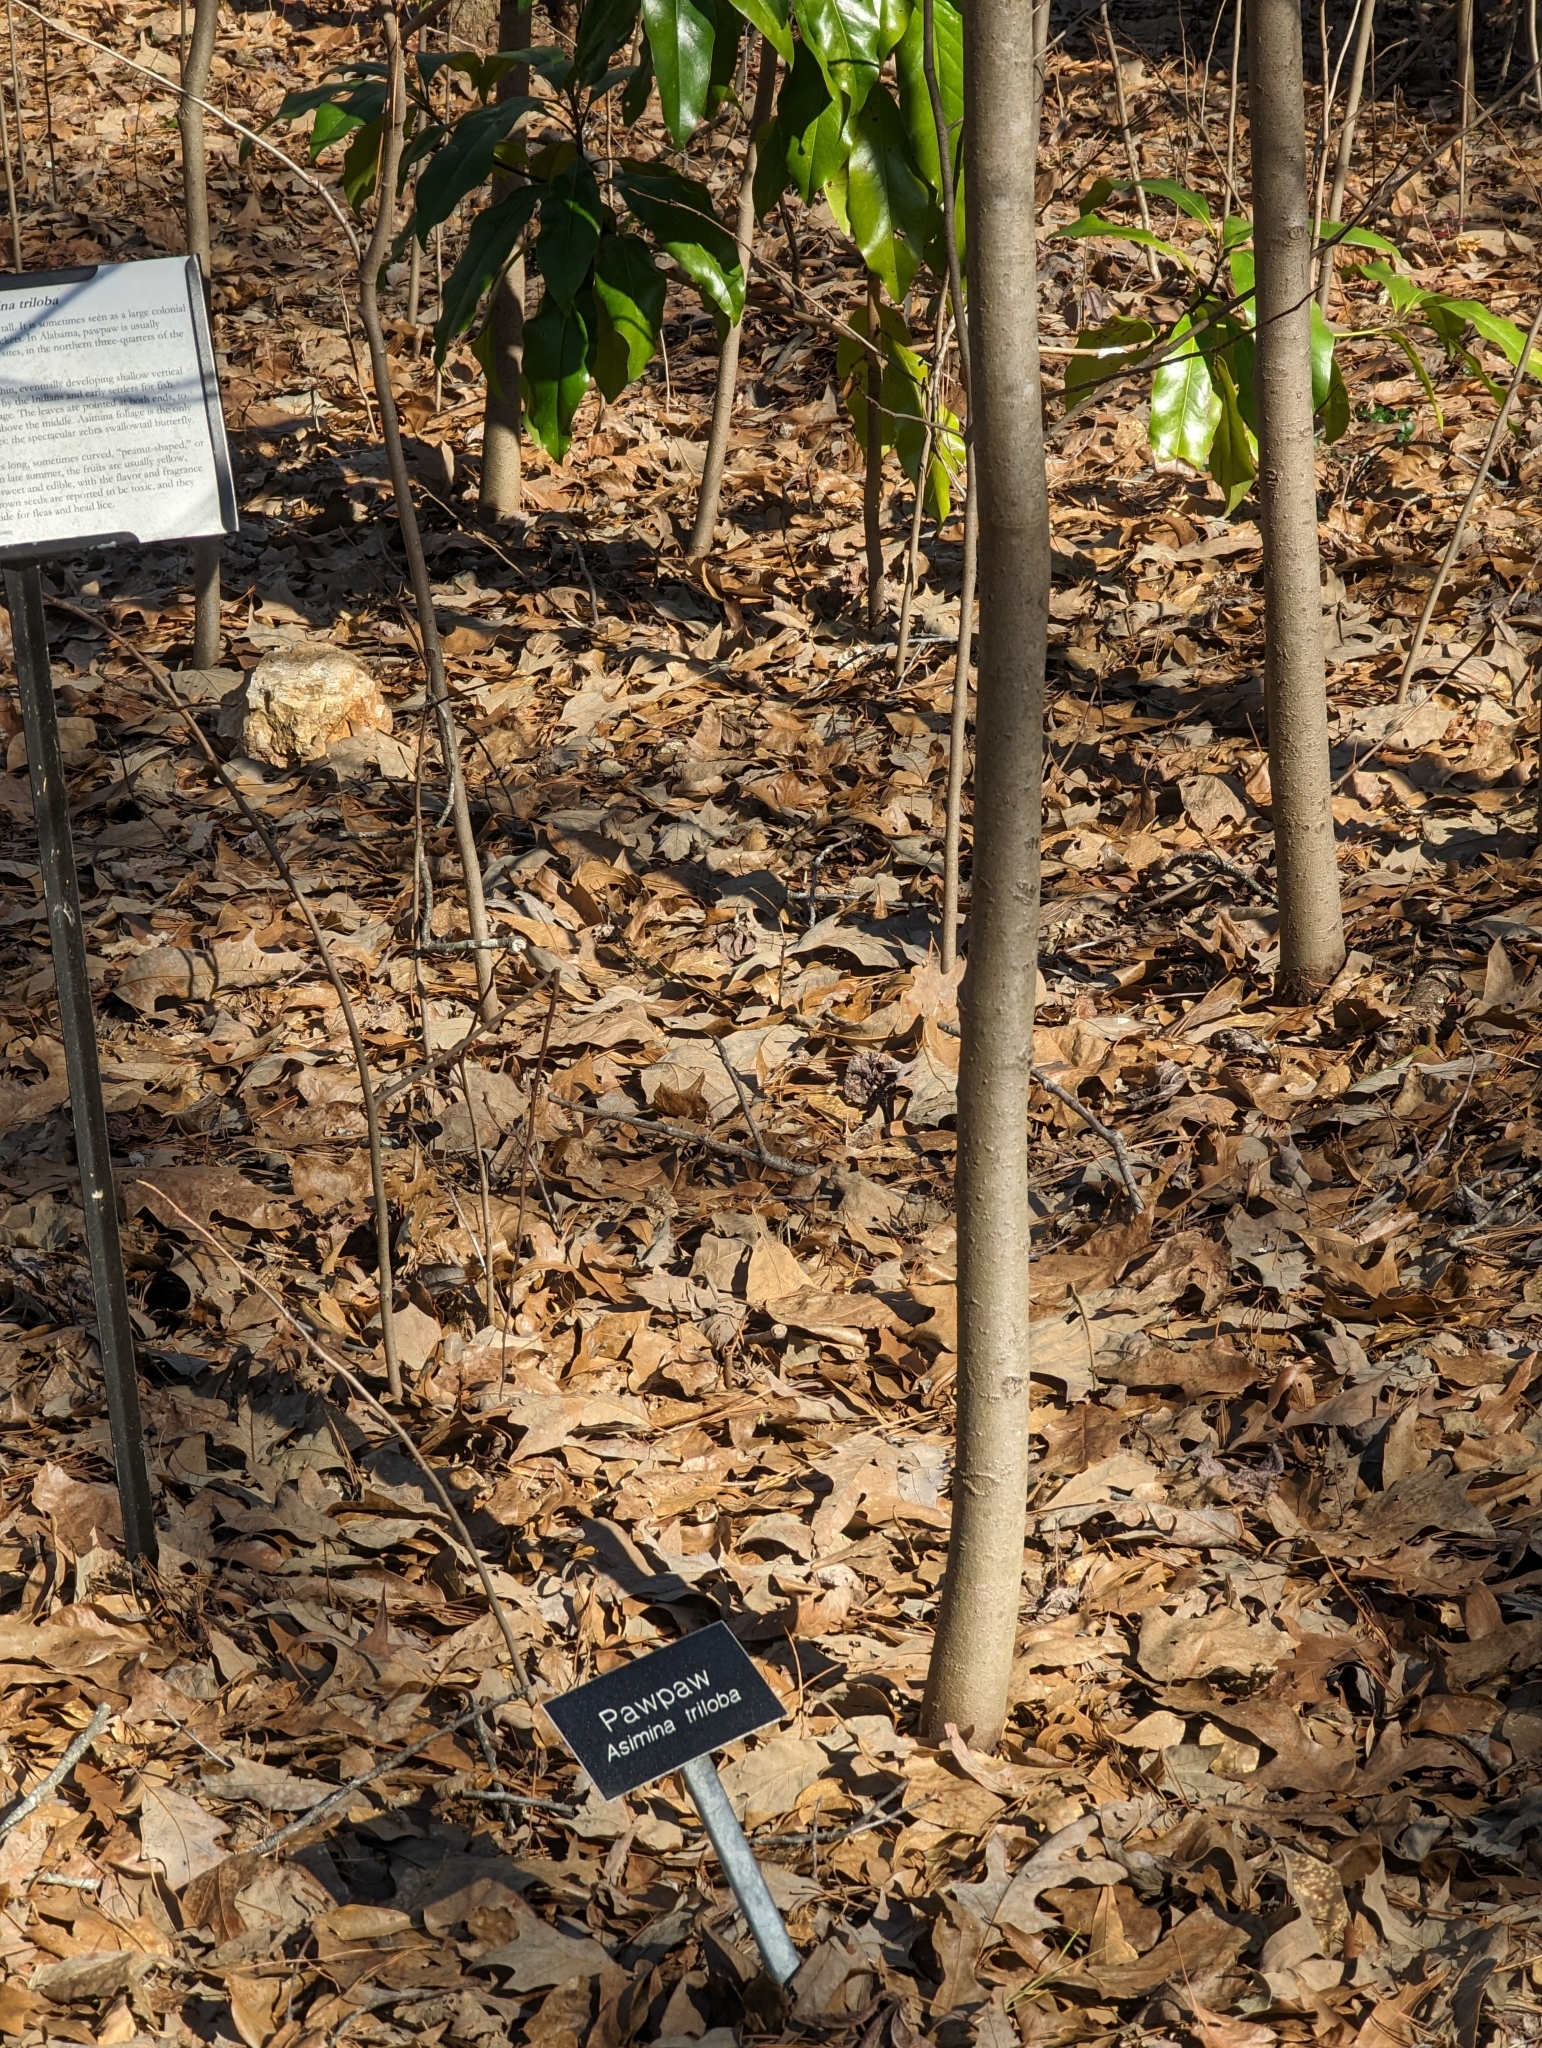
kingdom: Plantae
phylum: Tracheophyta
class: Magnoliopsida
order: Magnoliales
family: Annonaceae
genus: Asimina
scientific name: Asimina triloba
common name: Dog-banana
